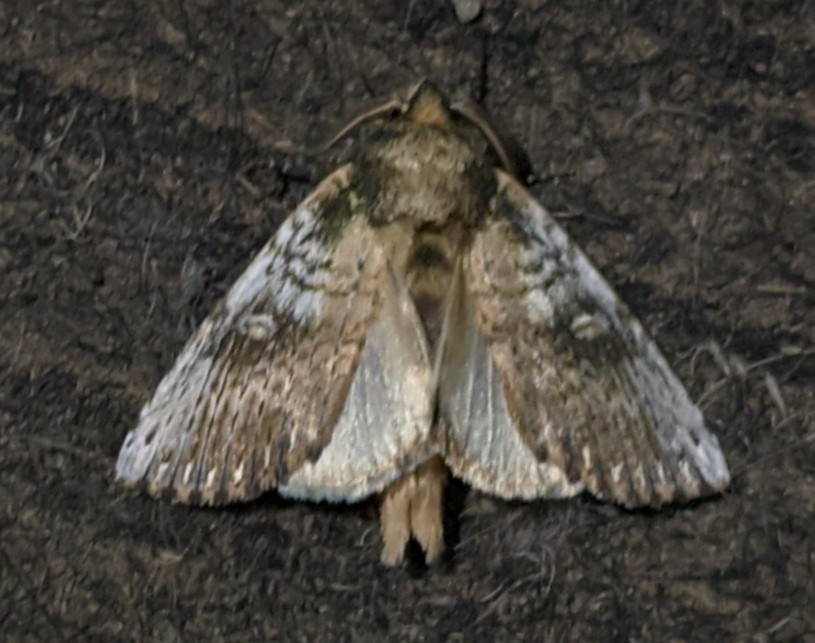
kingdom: Animalia
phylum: Arthropoda
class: Insecta
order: Lepidoptera
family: Notodontidae
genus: Schizura
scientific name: Schizura ipomaeae
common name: Morning-glory prominent
